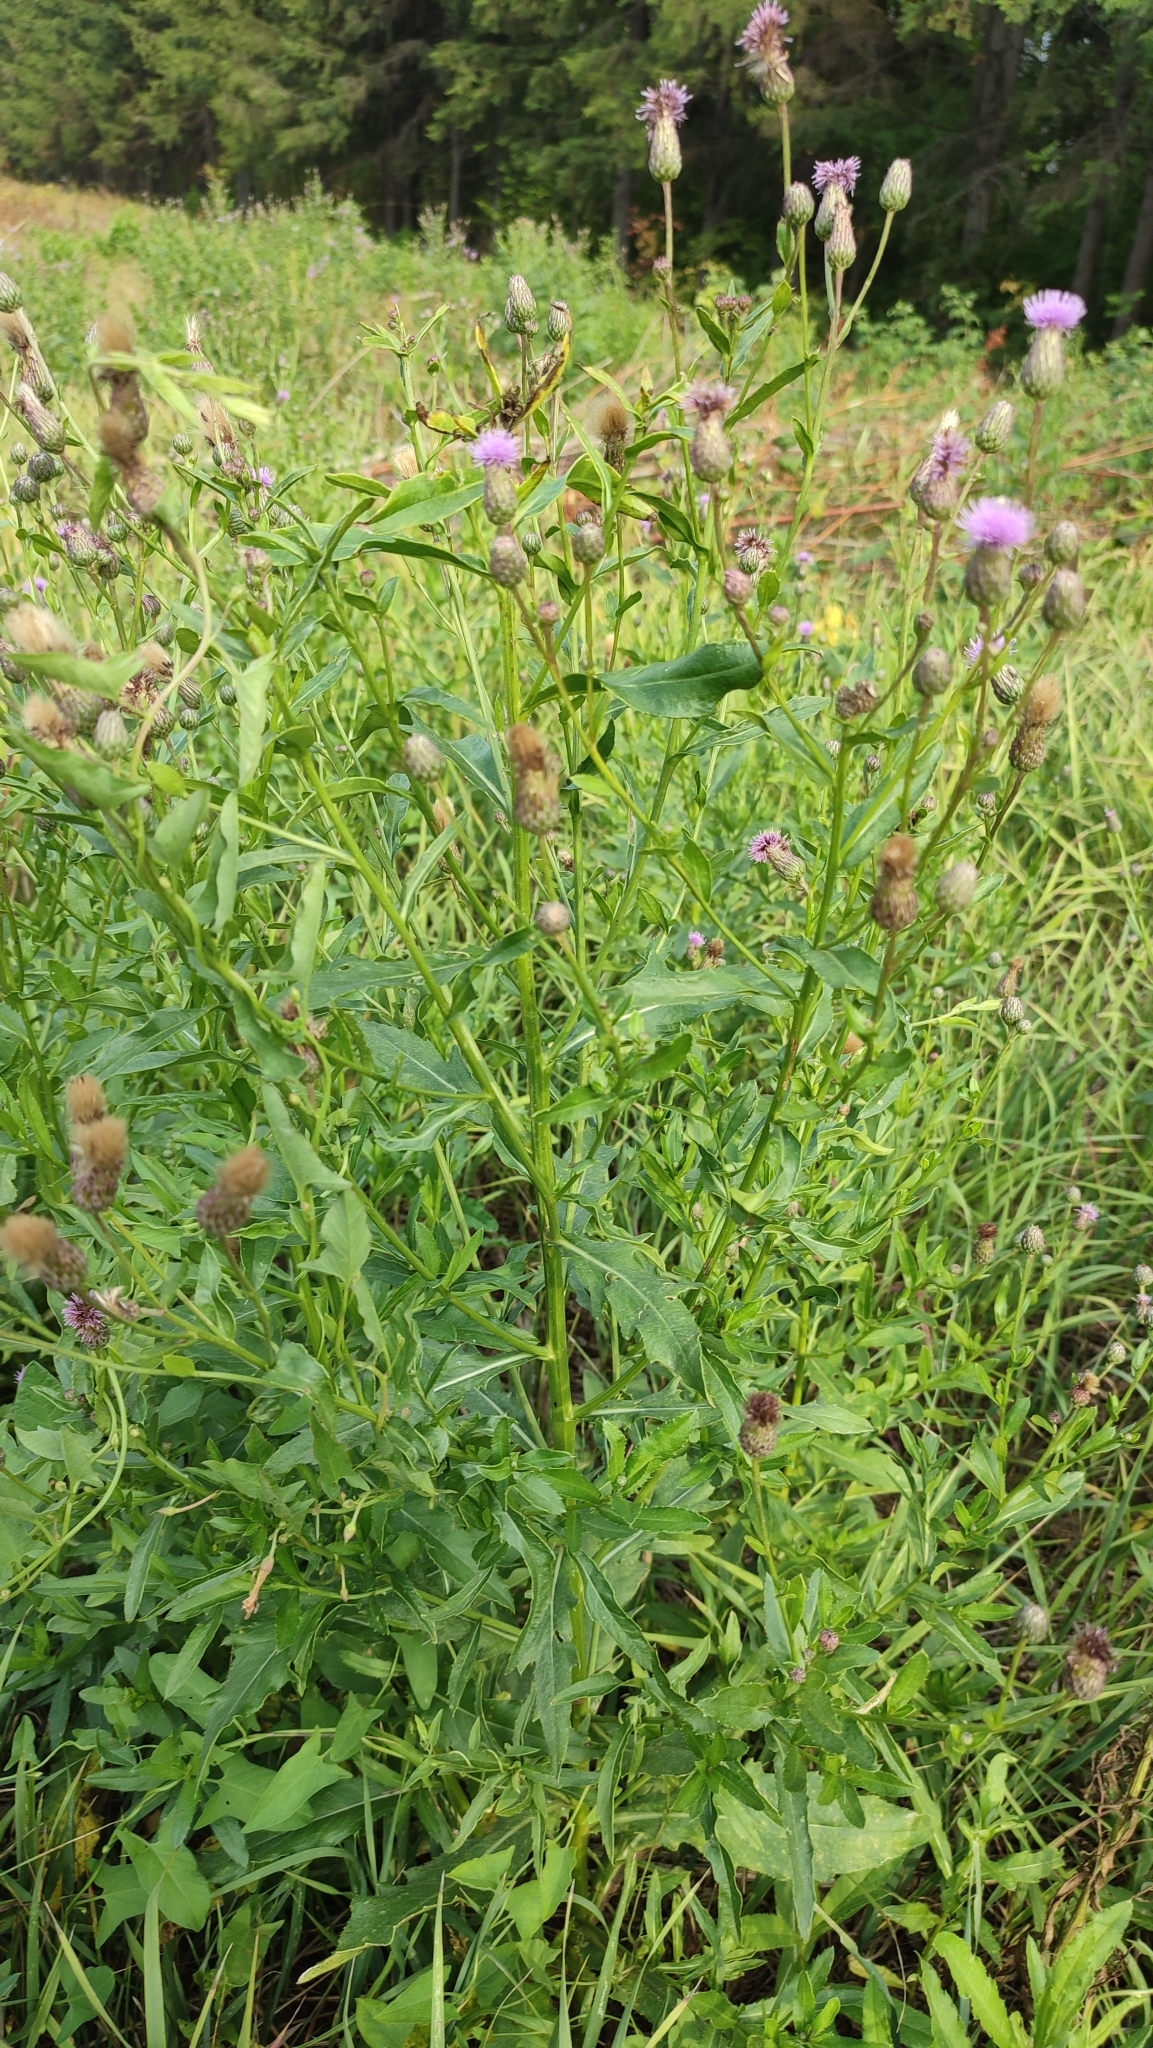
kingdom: Plantae
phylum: Tracheophyta
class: Magnoliopsida
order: Asterales
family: Asteraceae
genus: Cirsium
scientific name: Cirsium arvense
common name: Creeping thistle
